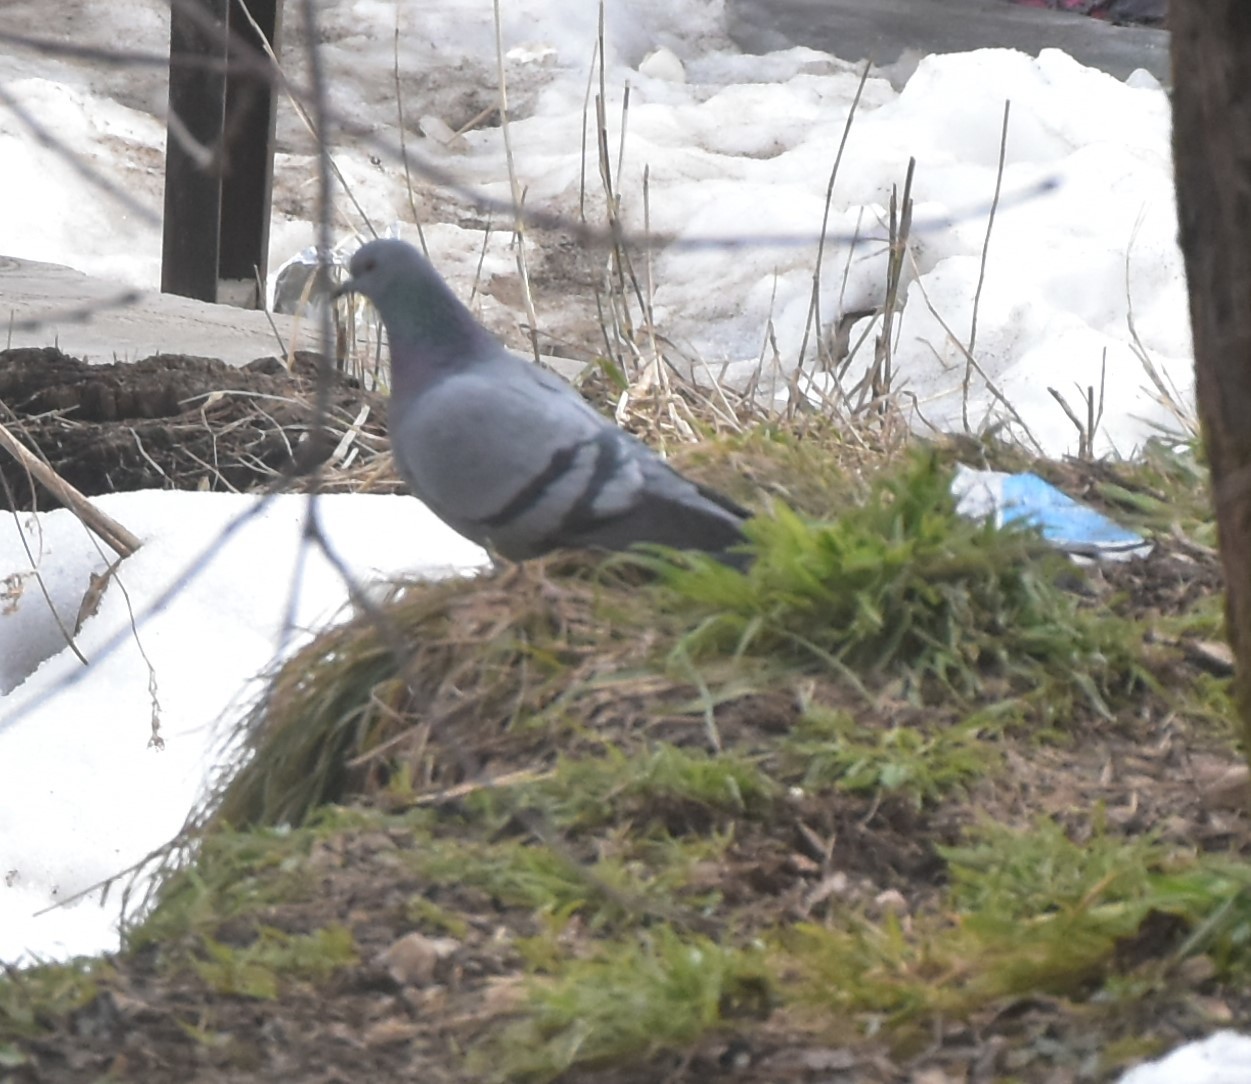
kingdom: Animalia
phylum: Chordata
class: Aves
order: Columbiformes
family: Columbidae
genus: Columba
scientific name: Columba livia
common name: Rock pigeon
